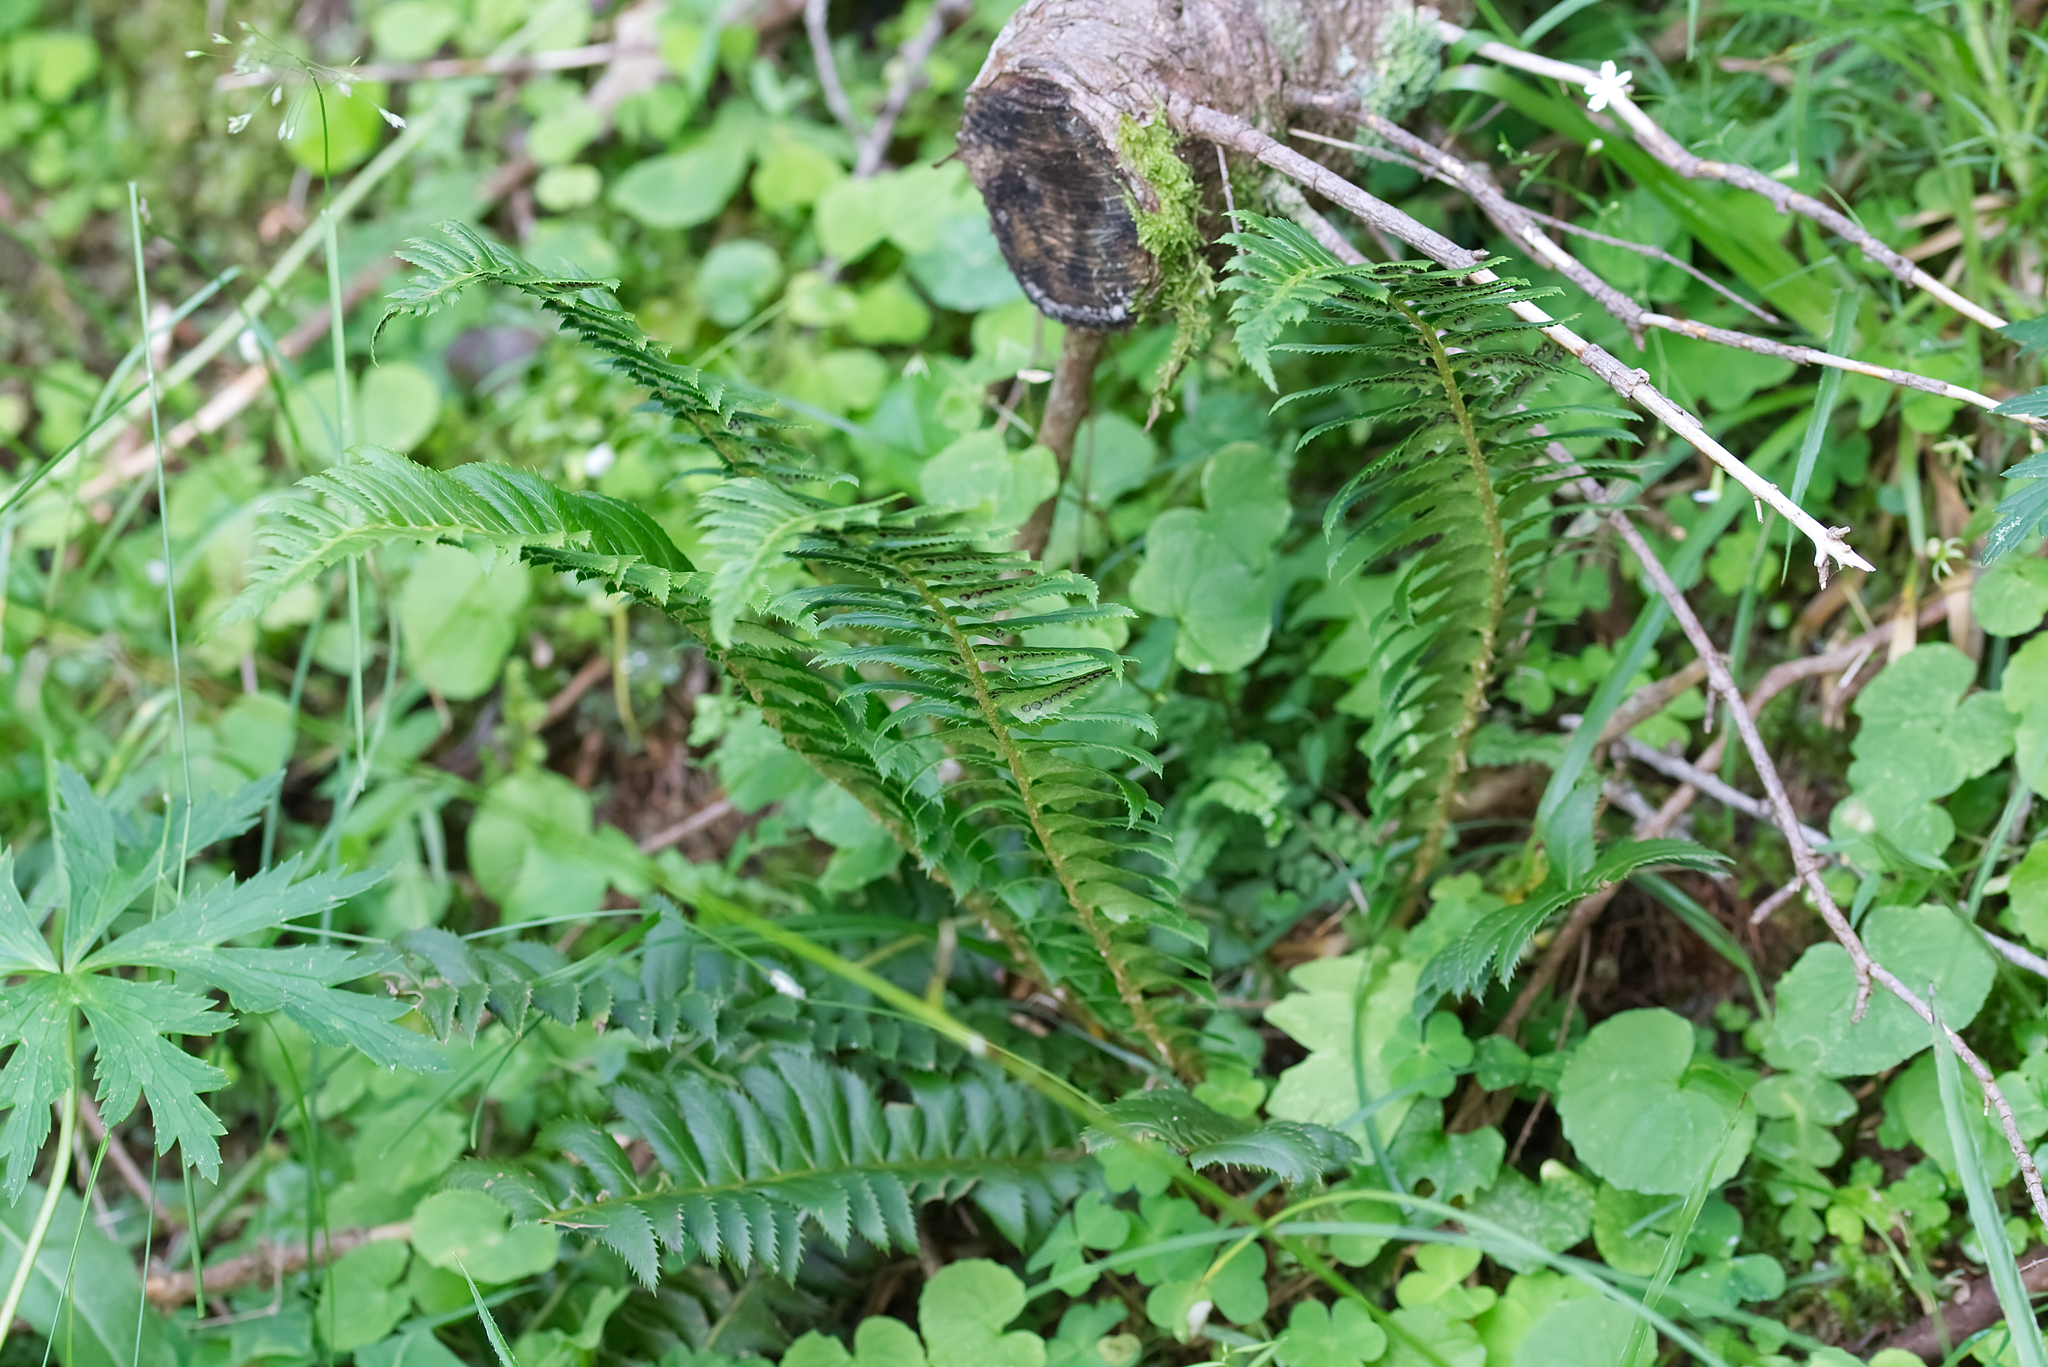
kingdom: Plantae
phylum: Tracheophyta
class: Polypodiopsida
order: Polypodiales
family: Dryopteridaceae
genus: Polystichum
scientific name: Polystichum lonchitis
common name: Holly fern
